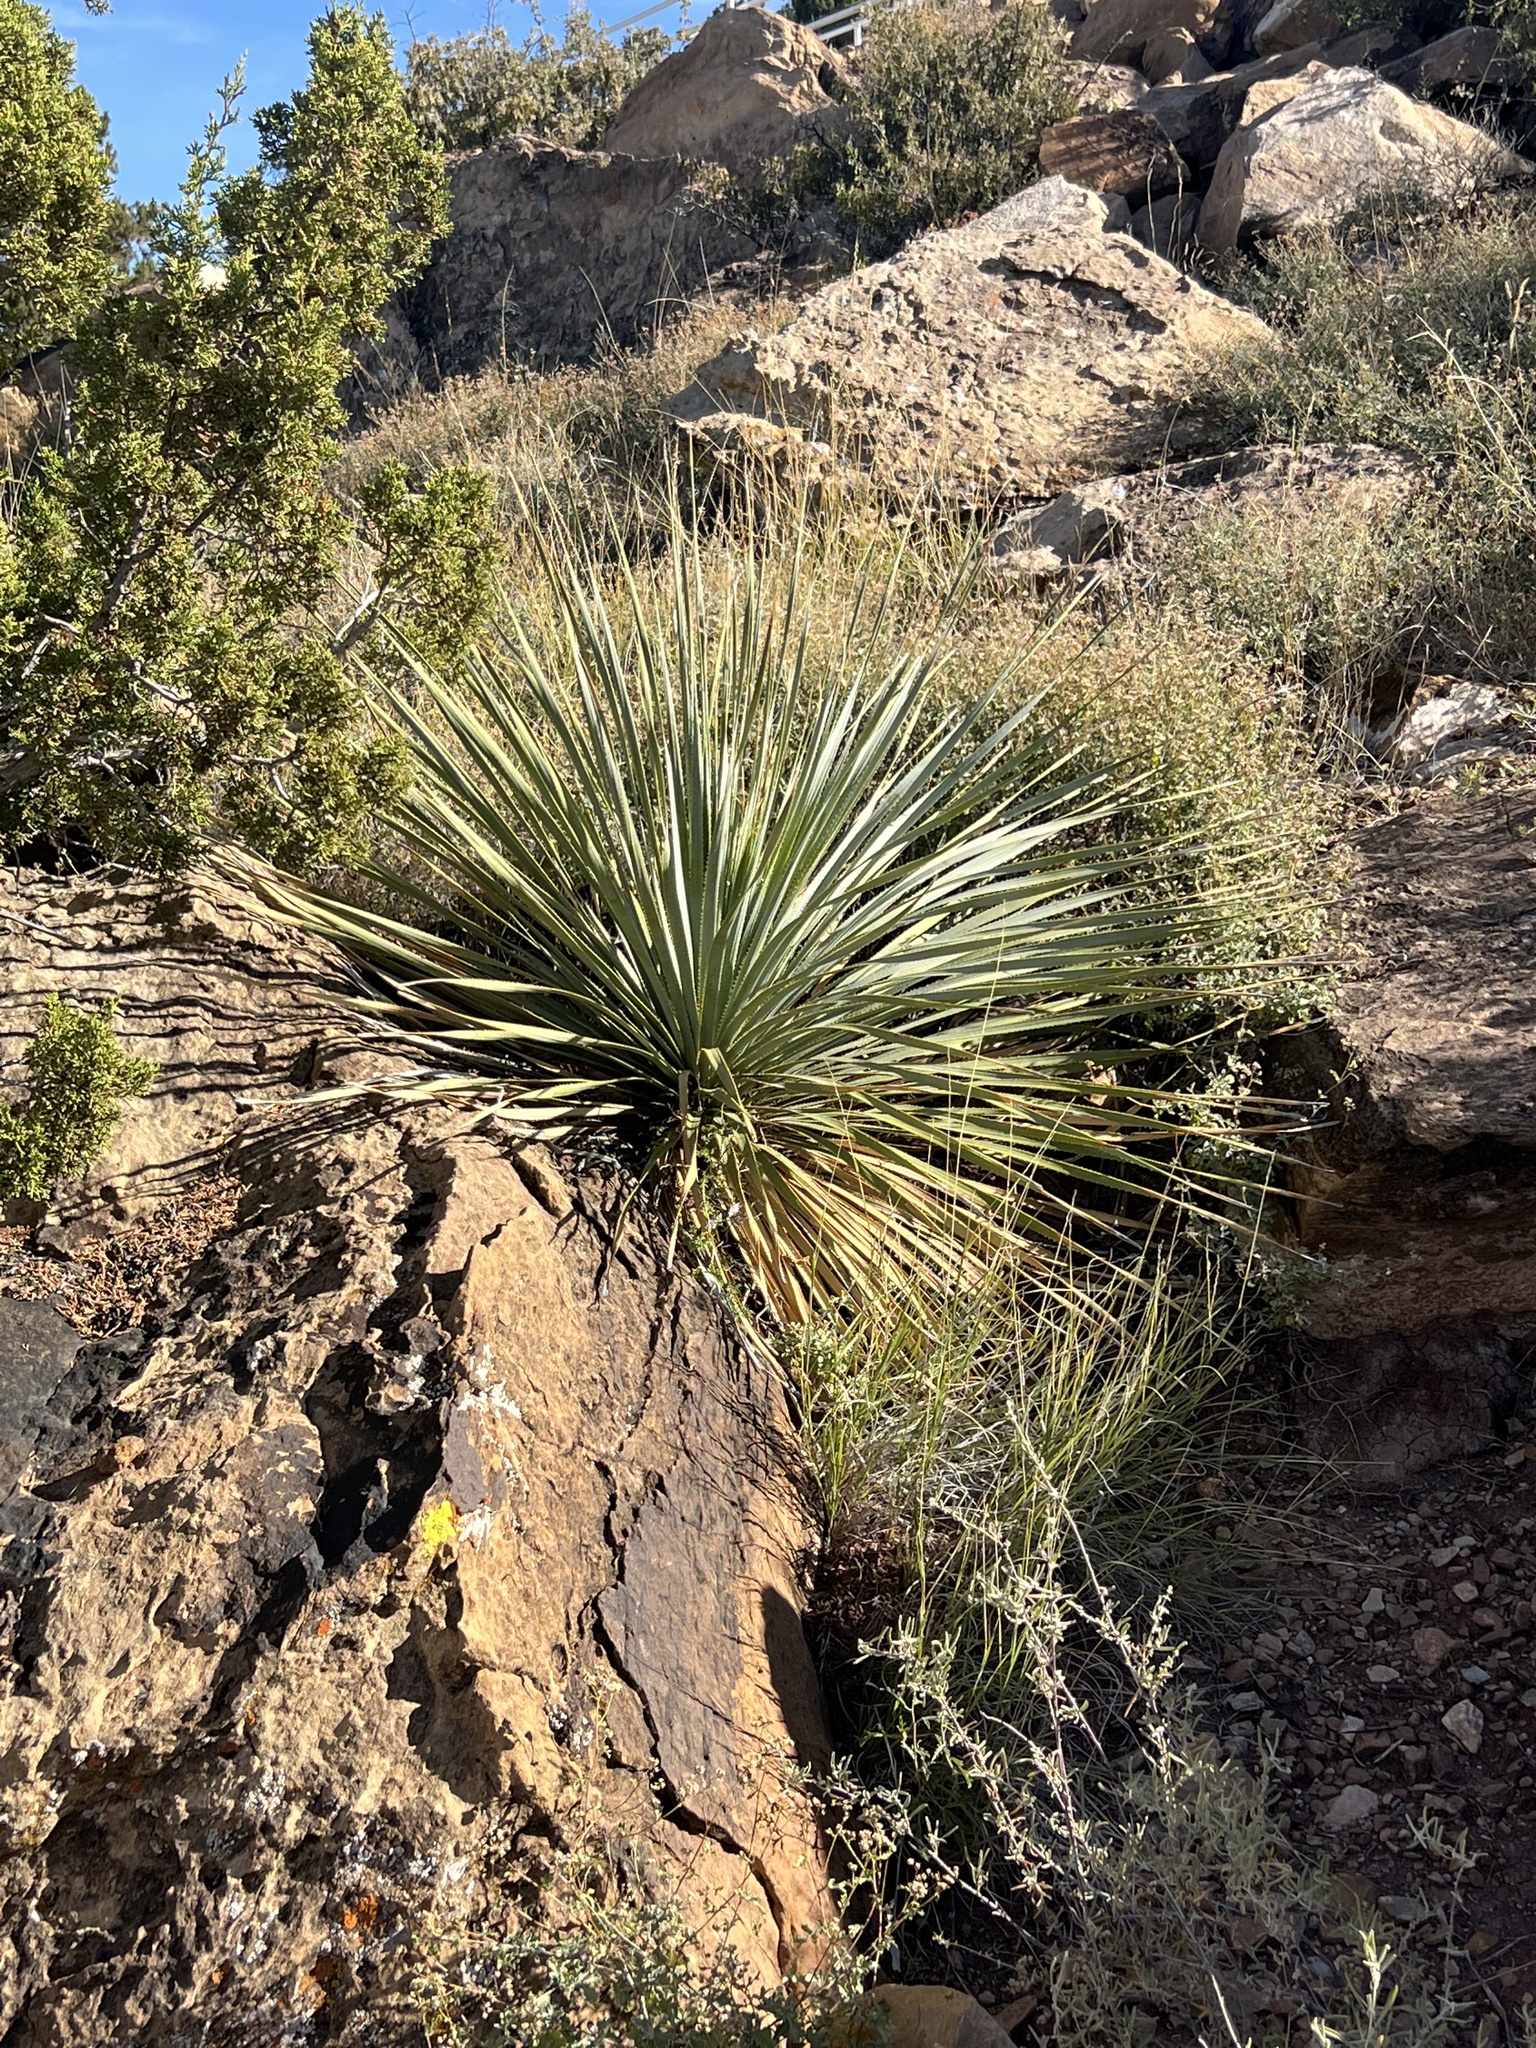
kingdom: Plantae
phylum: Tracheophyta
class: Liliopsida
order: Asparagales
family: Asparagaceae
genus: Dasylirion
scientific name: Dasylirion wheeleri
